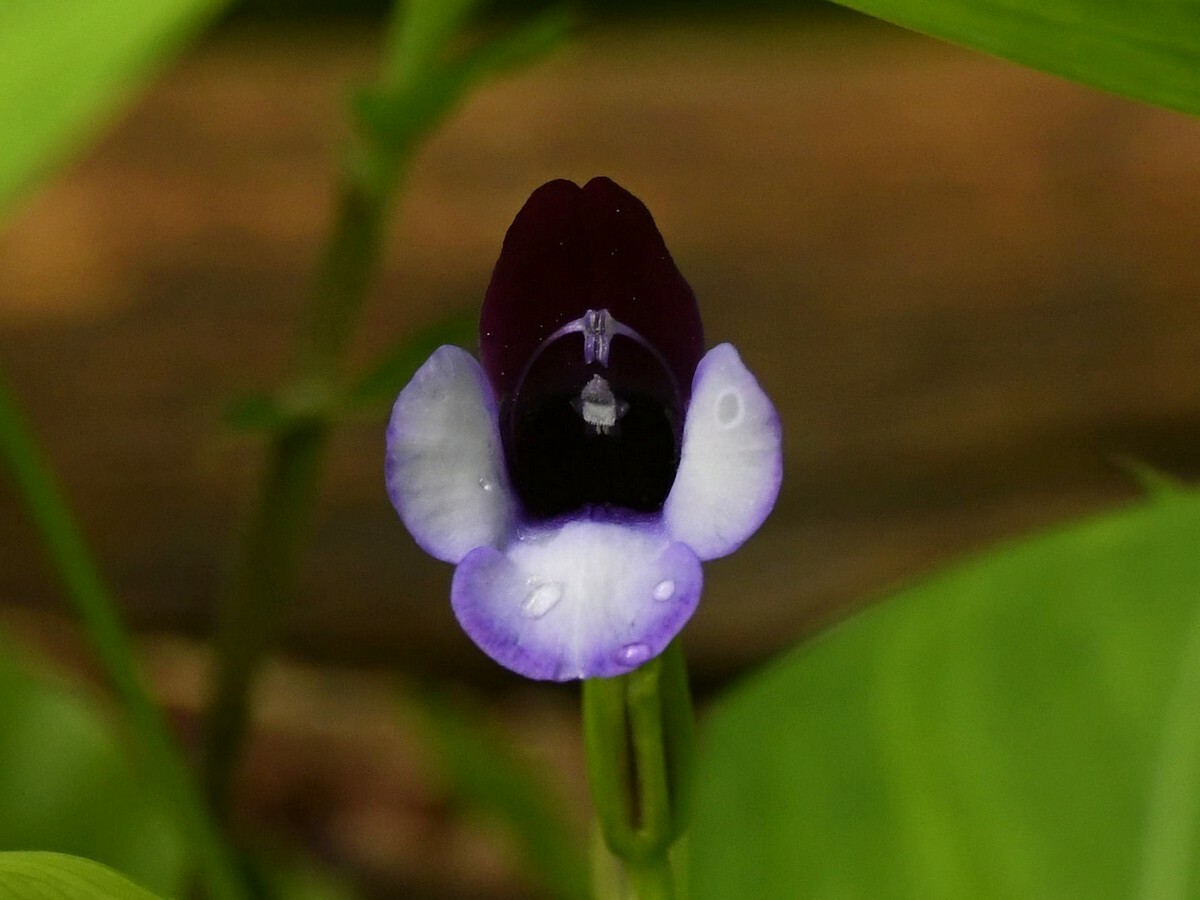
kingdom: Plantae
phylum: Tracheophyta
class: Magnoliopsida
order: Lamiales
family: Linderniaceae
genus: Torenia
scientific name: Torenia bicolor
